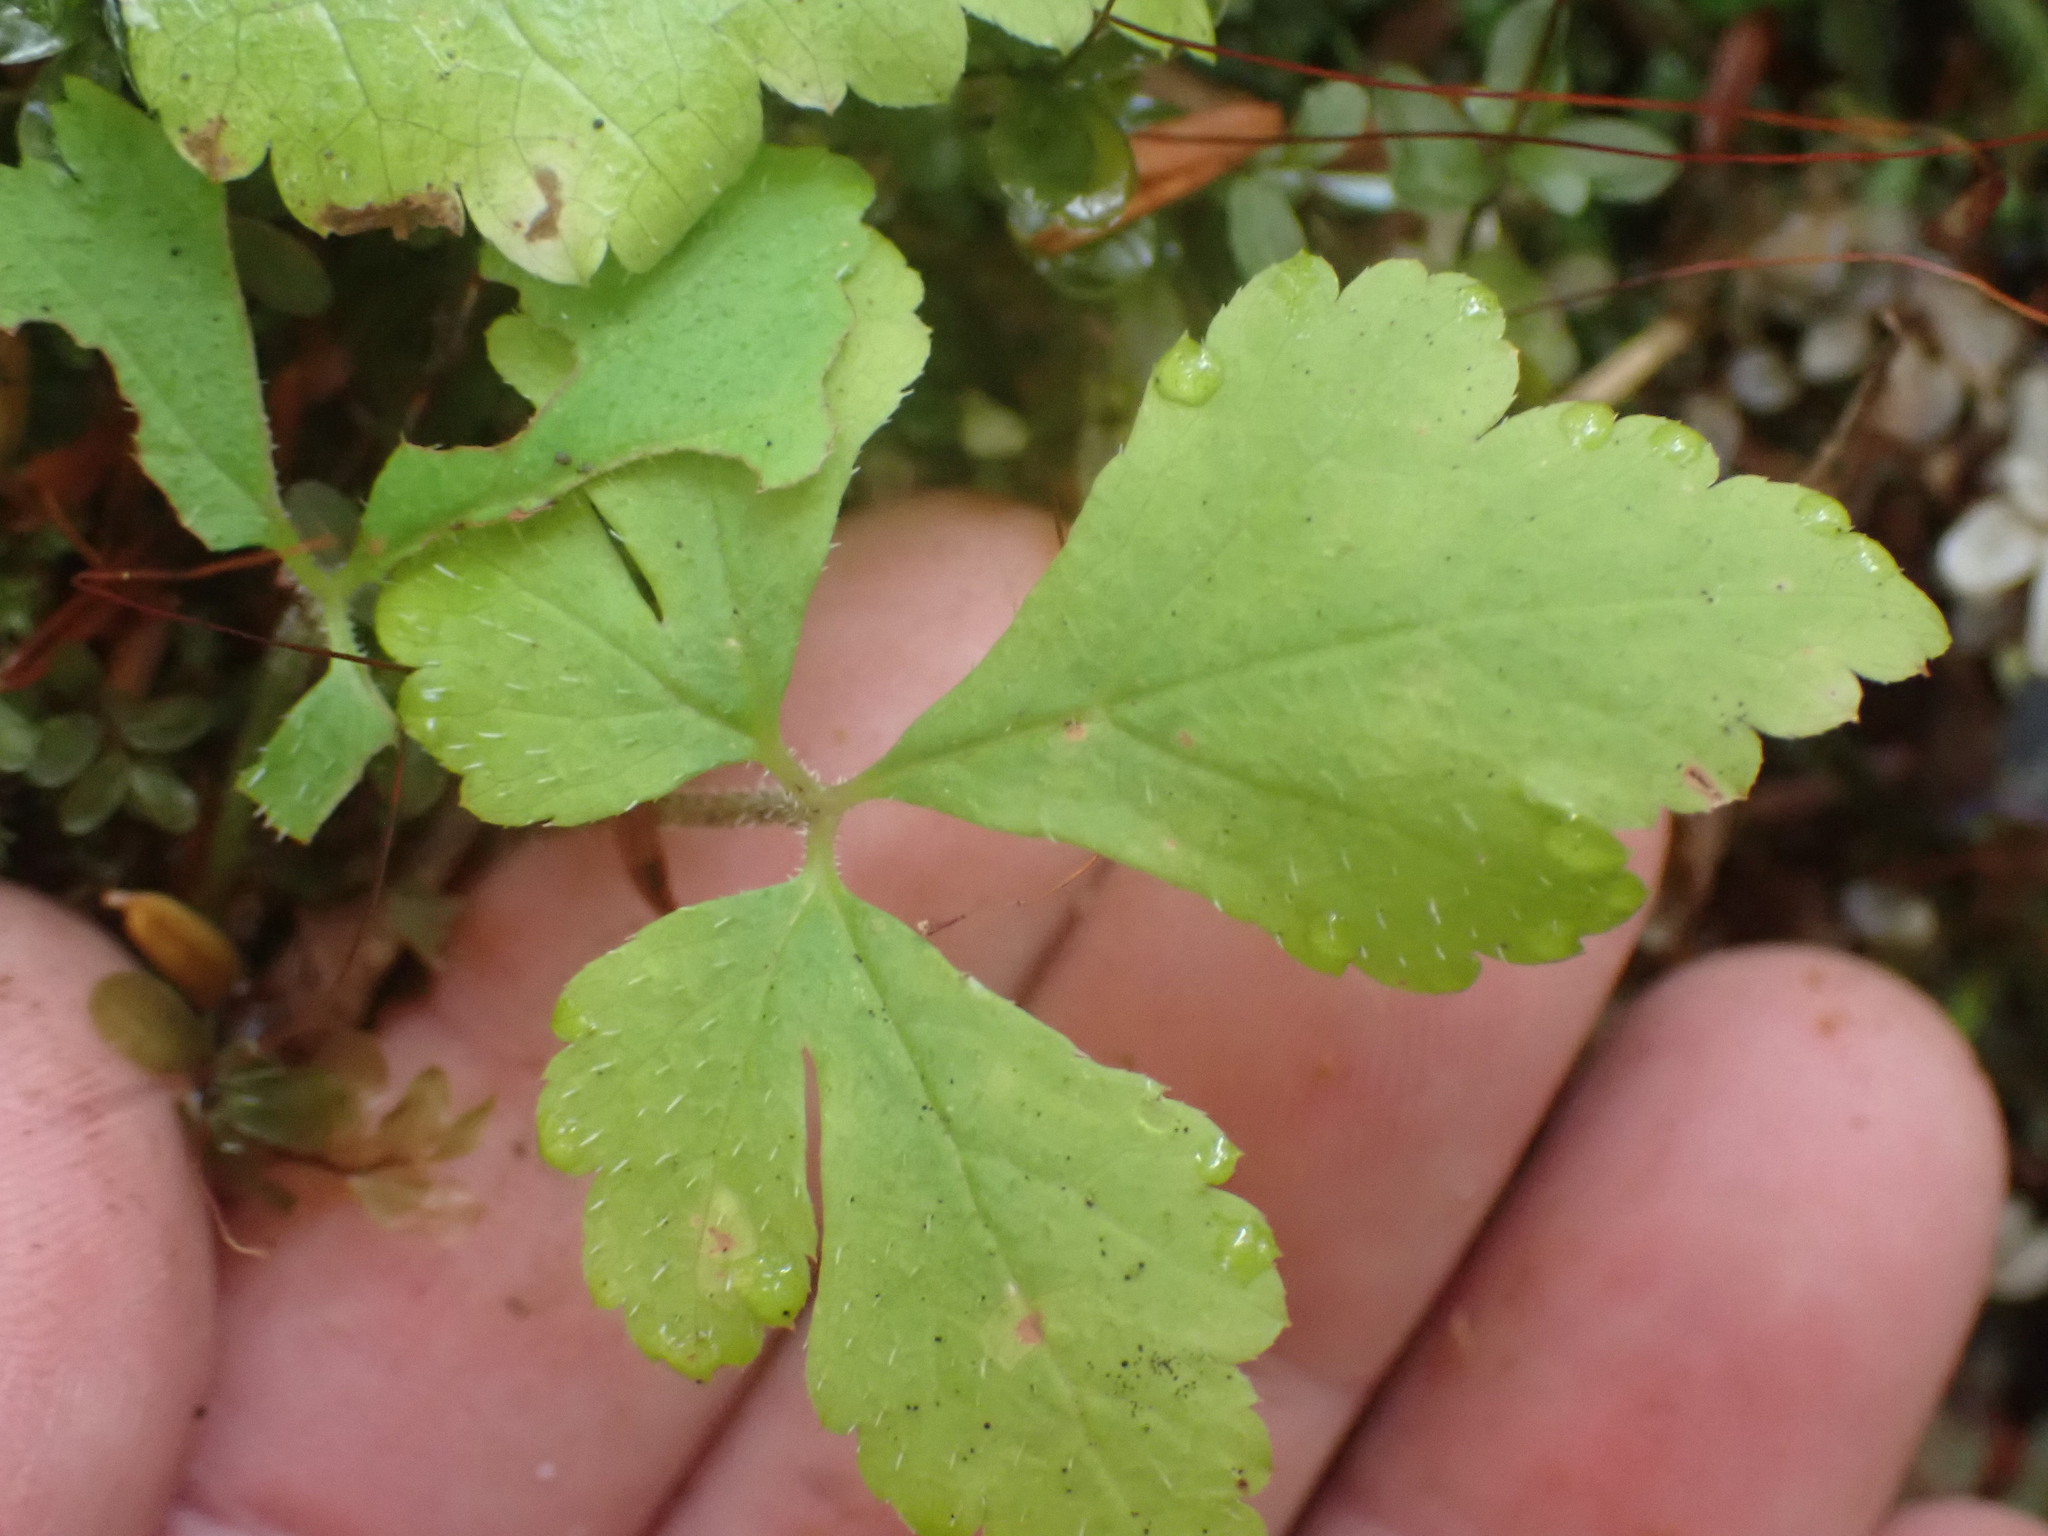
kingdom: Plantae
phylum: Tracheophyta
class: Magnoliopsida
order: Saxifragales
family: Saxifragaceae
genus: Tiarella
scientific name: Tiarella trifoliata
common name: Sugar-scoop
